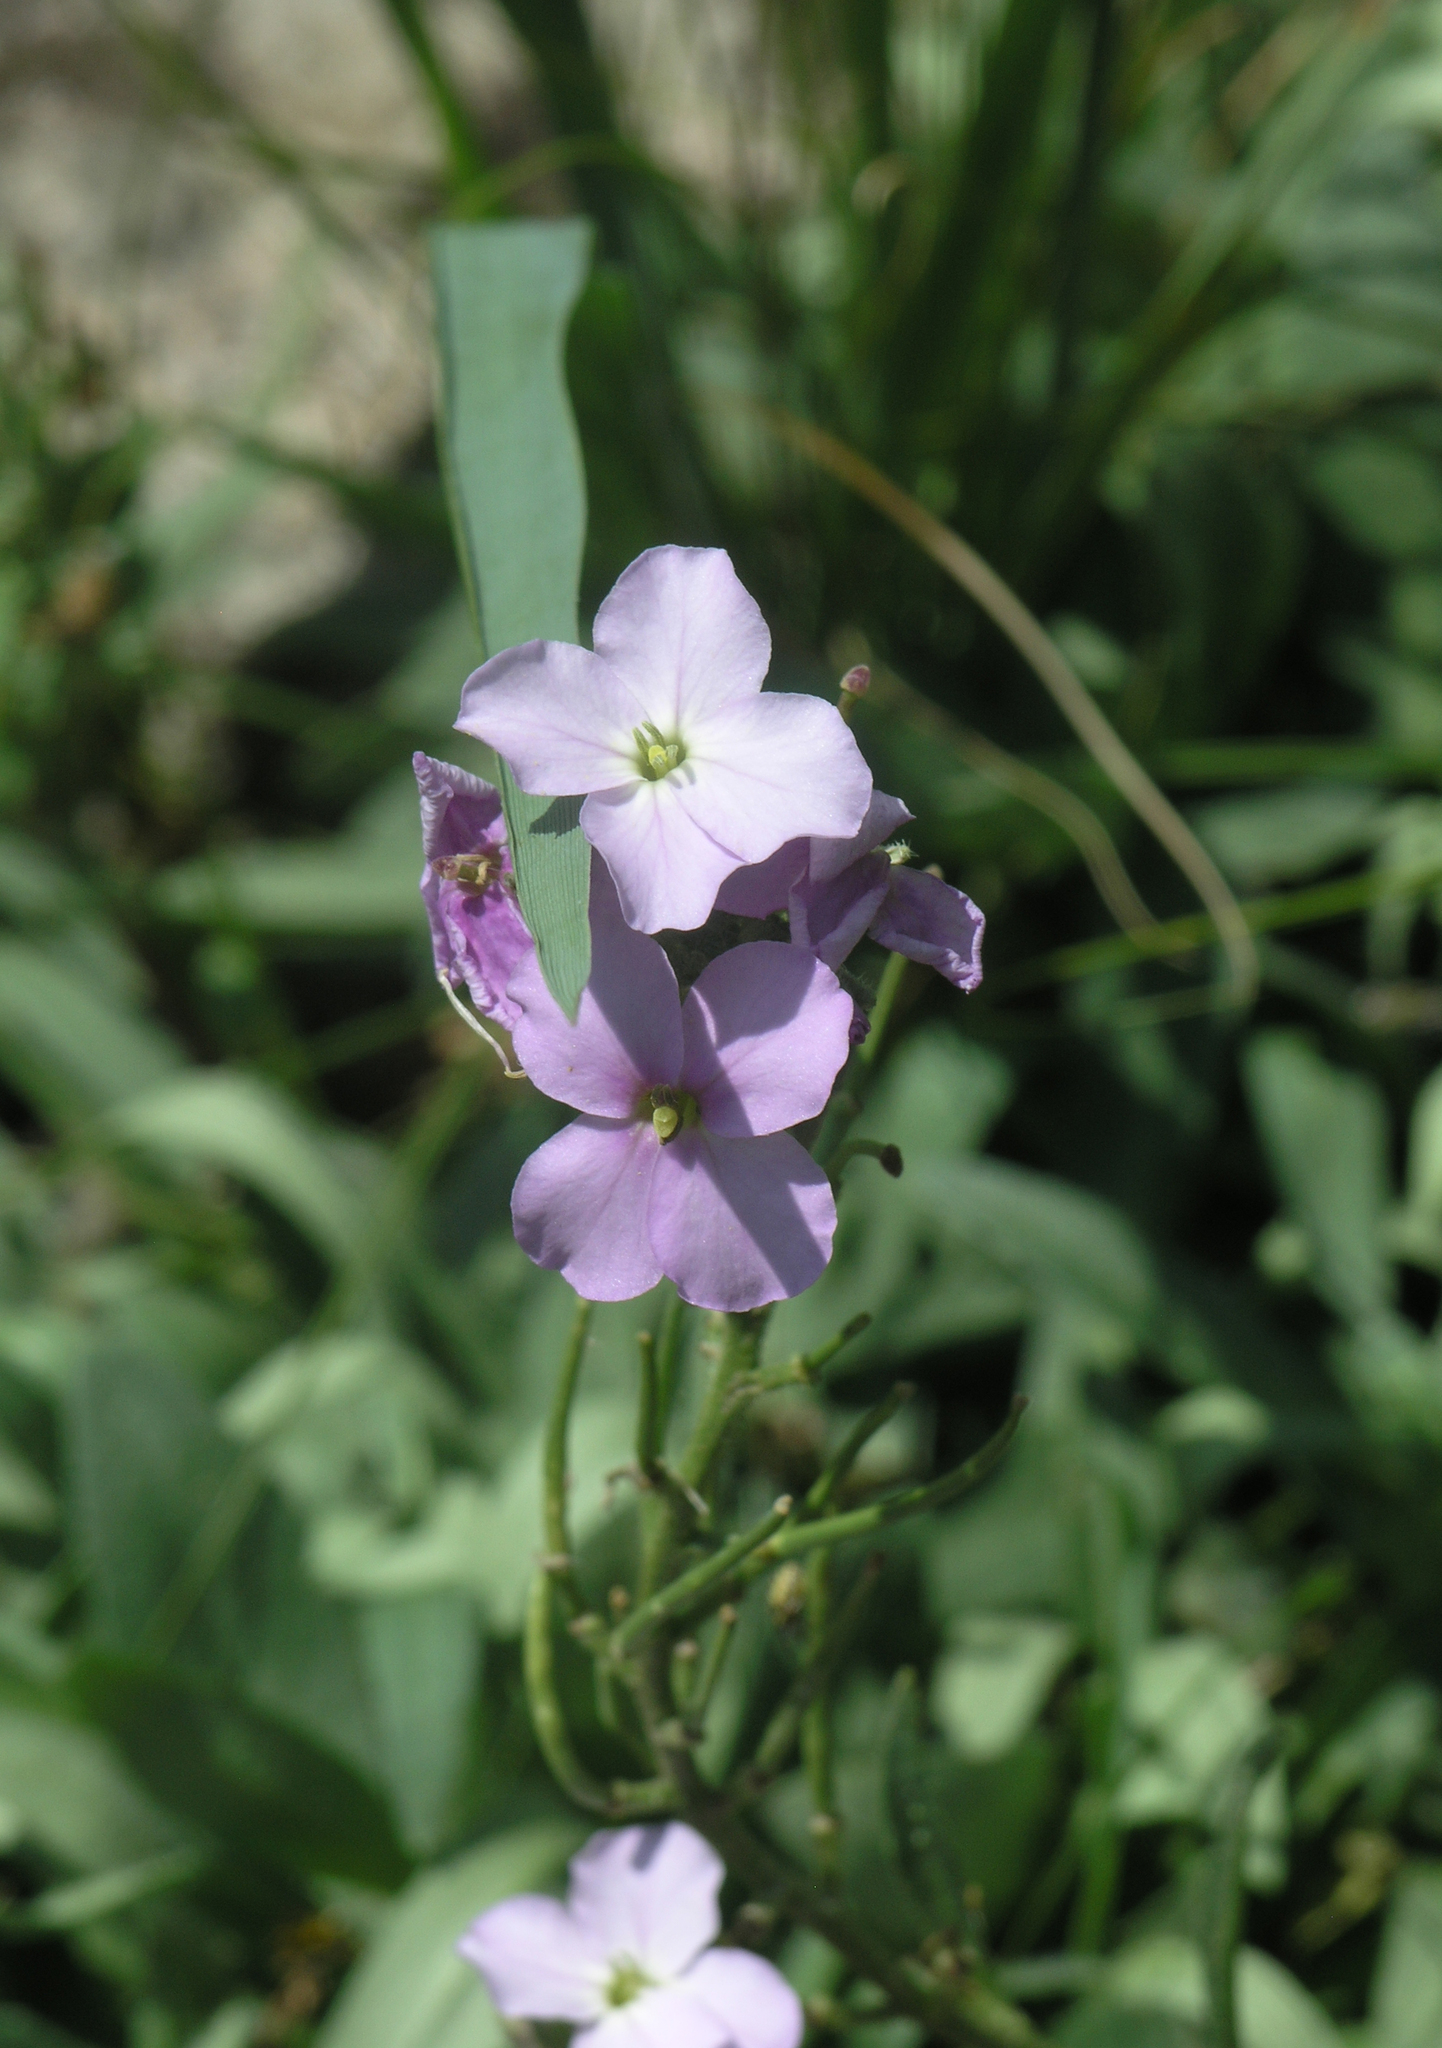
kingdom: Plantae
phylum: Tracheophyta
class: Magnoliopsida
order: Brassicales
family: Brassicaceae
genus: Clausia
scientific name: Clausia aprica
